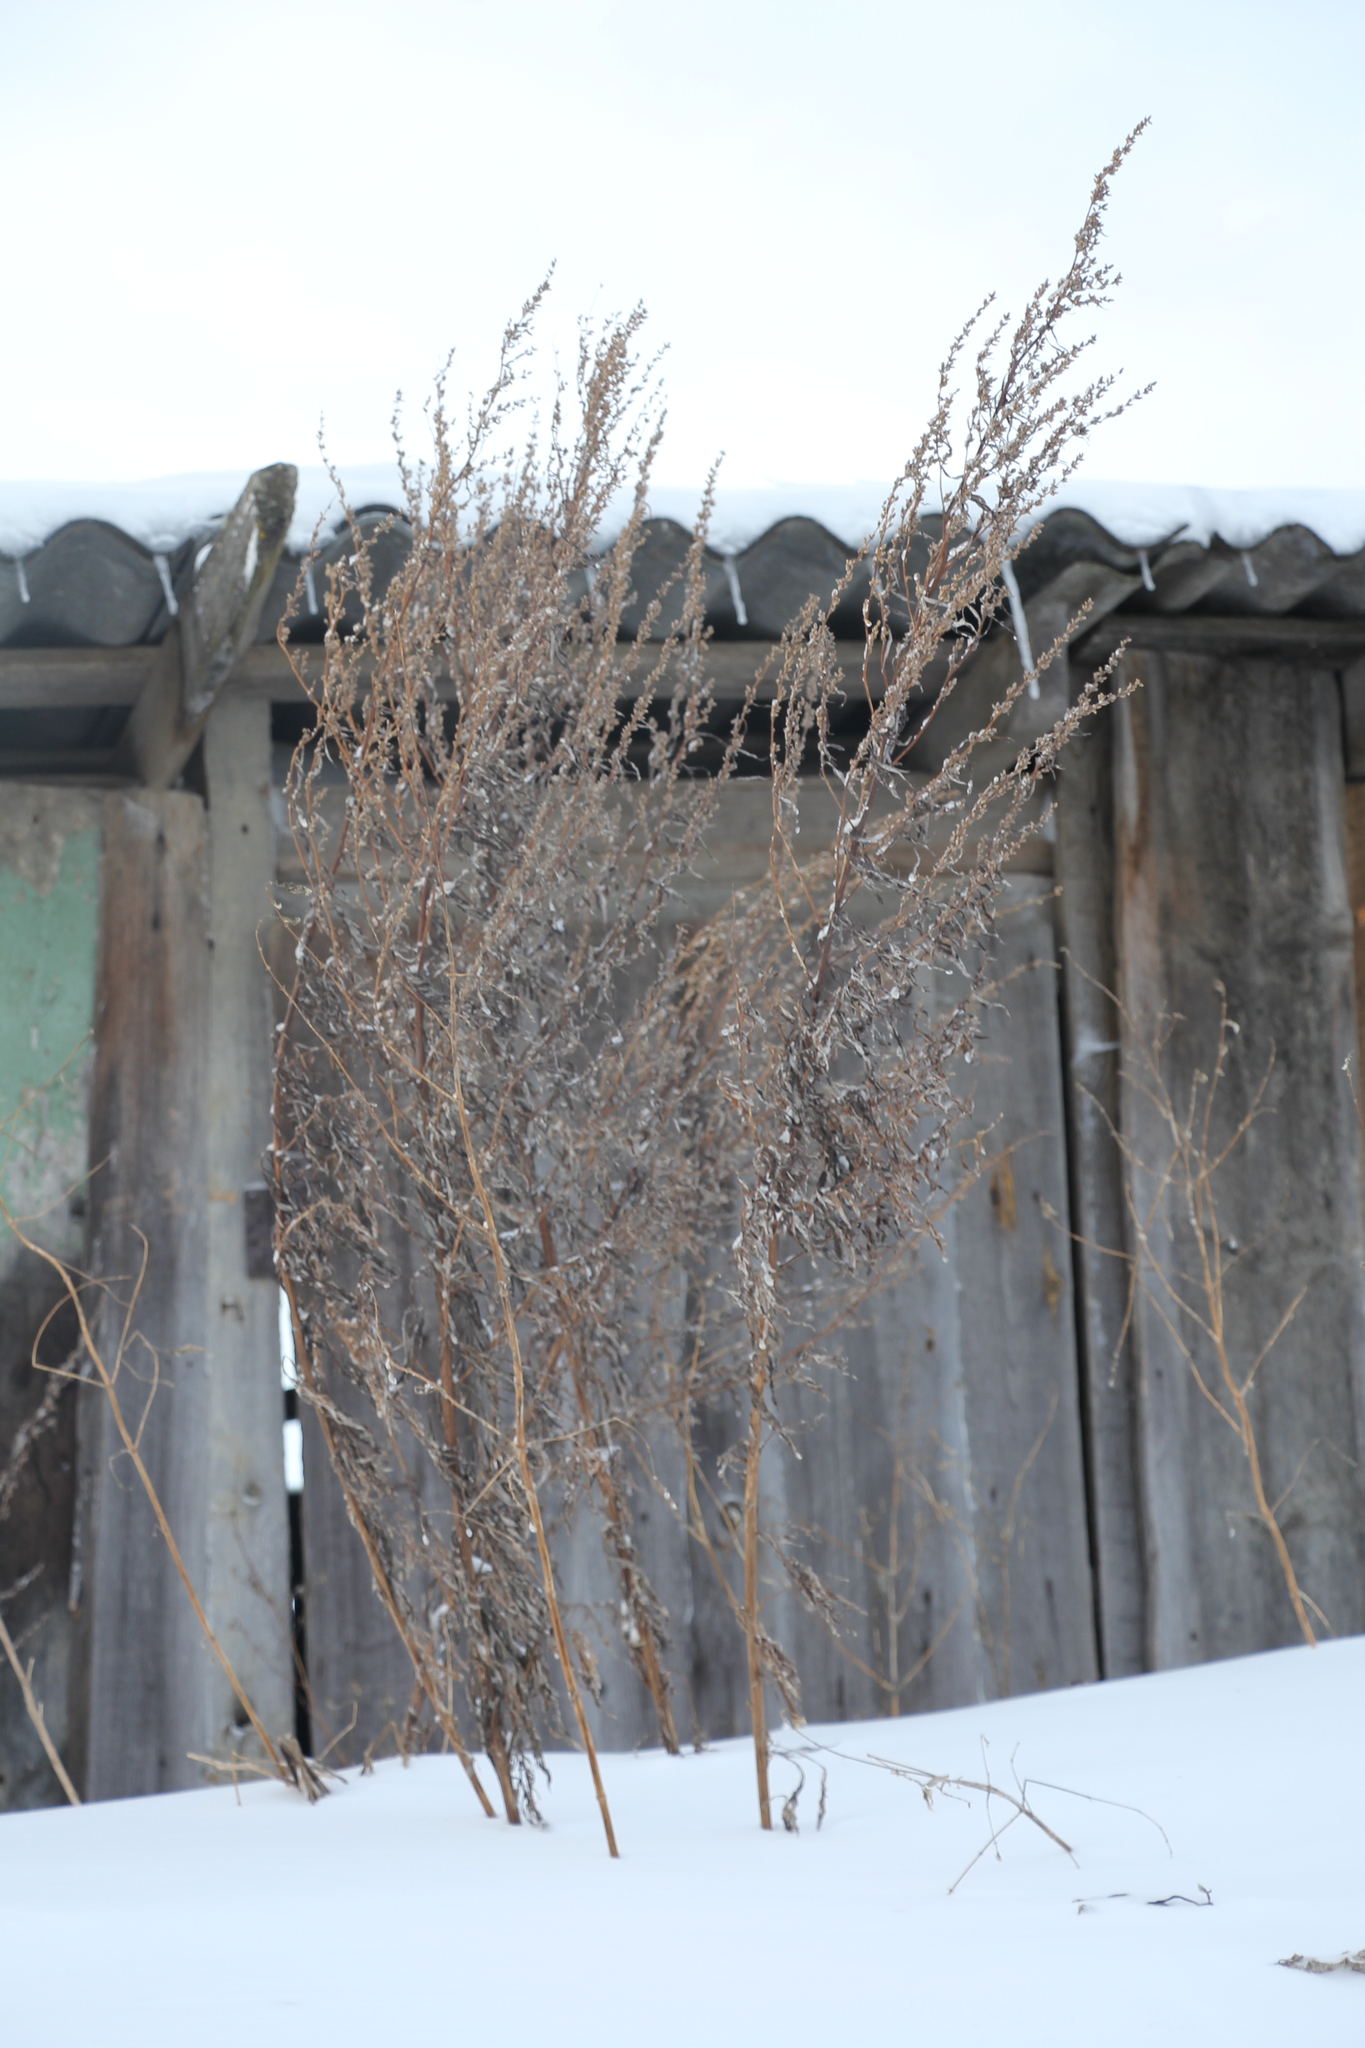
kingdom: Plantae
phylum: Tracheophyta
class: Magnoliopsida
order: Asterales
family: Asteraceae
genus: Artemisia
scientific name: Artemisia vulgaris
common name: Mugwort
